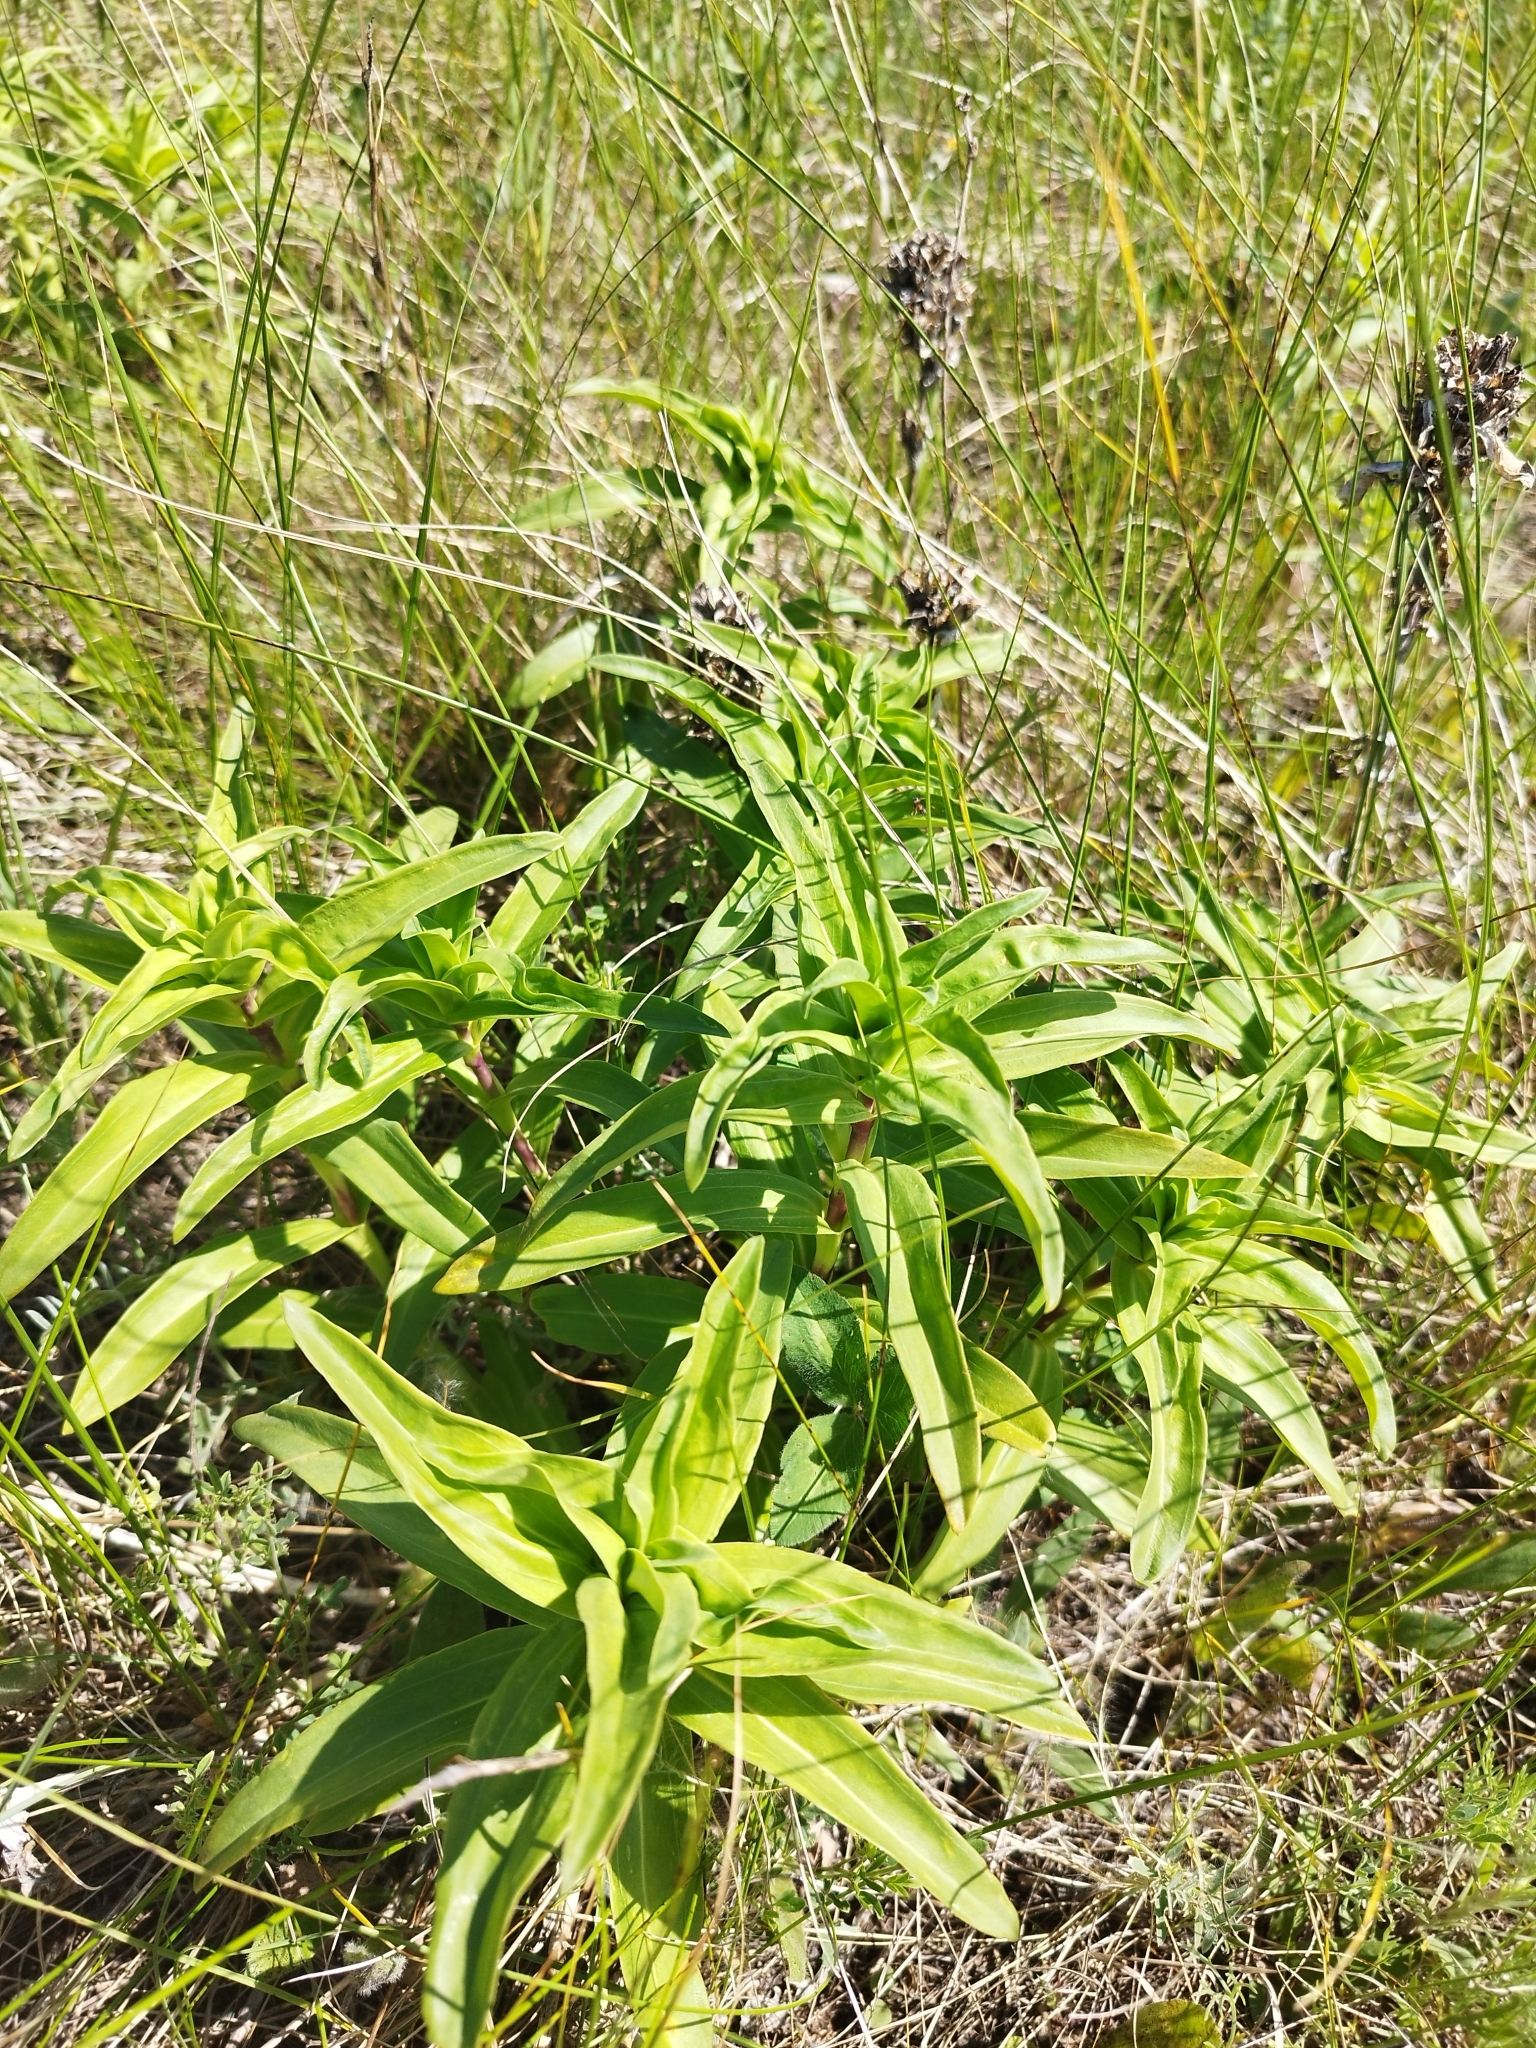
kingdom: Plantae
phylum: Tracheophyta
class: Magnoliopsida
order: Gentianales
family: Gentianaceae
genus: Gentiana
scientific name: Gentiana cruciata
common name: Cross gentian
